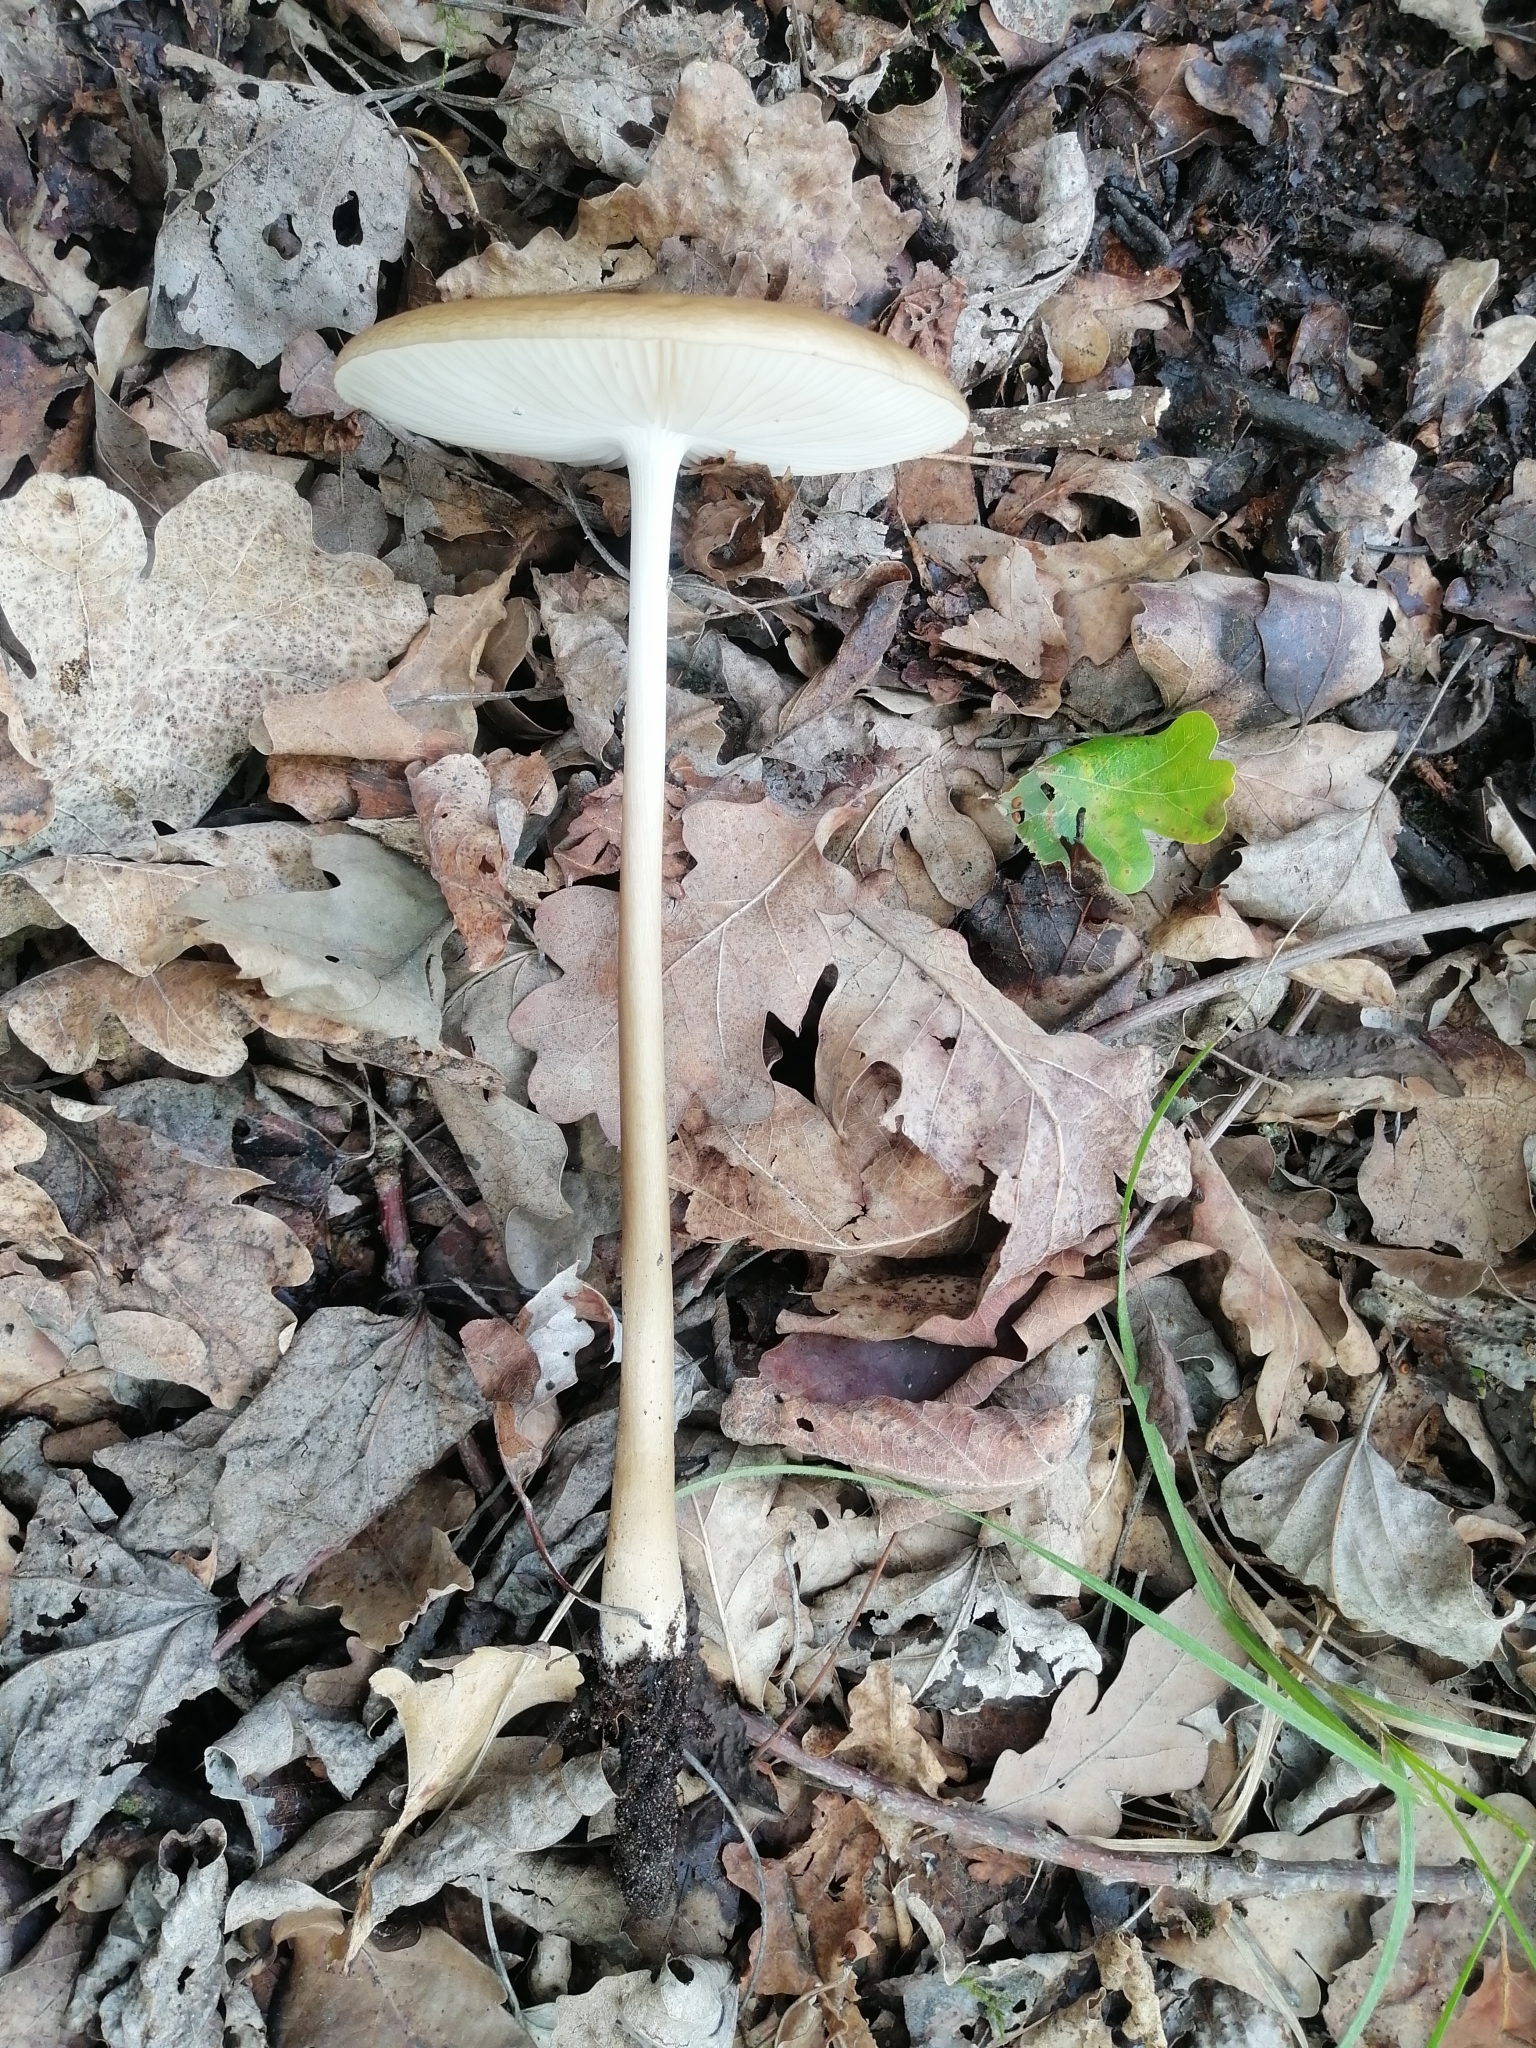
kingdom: Fungi
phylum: Basidiomycota
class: Agaricomycetes
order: Agaricales
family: Physalacriaceae
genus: Hymenopellis
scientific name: Hymenopellis radicata
